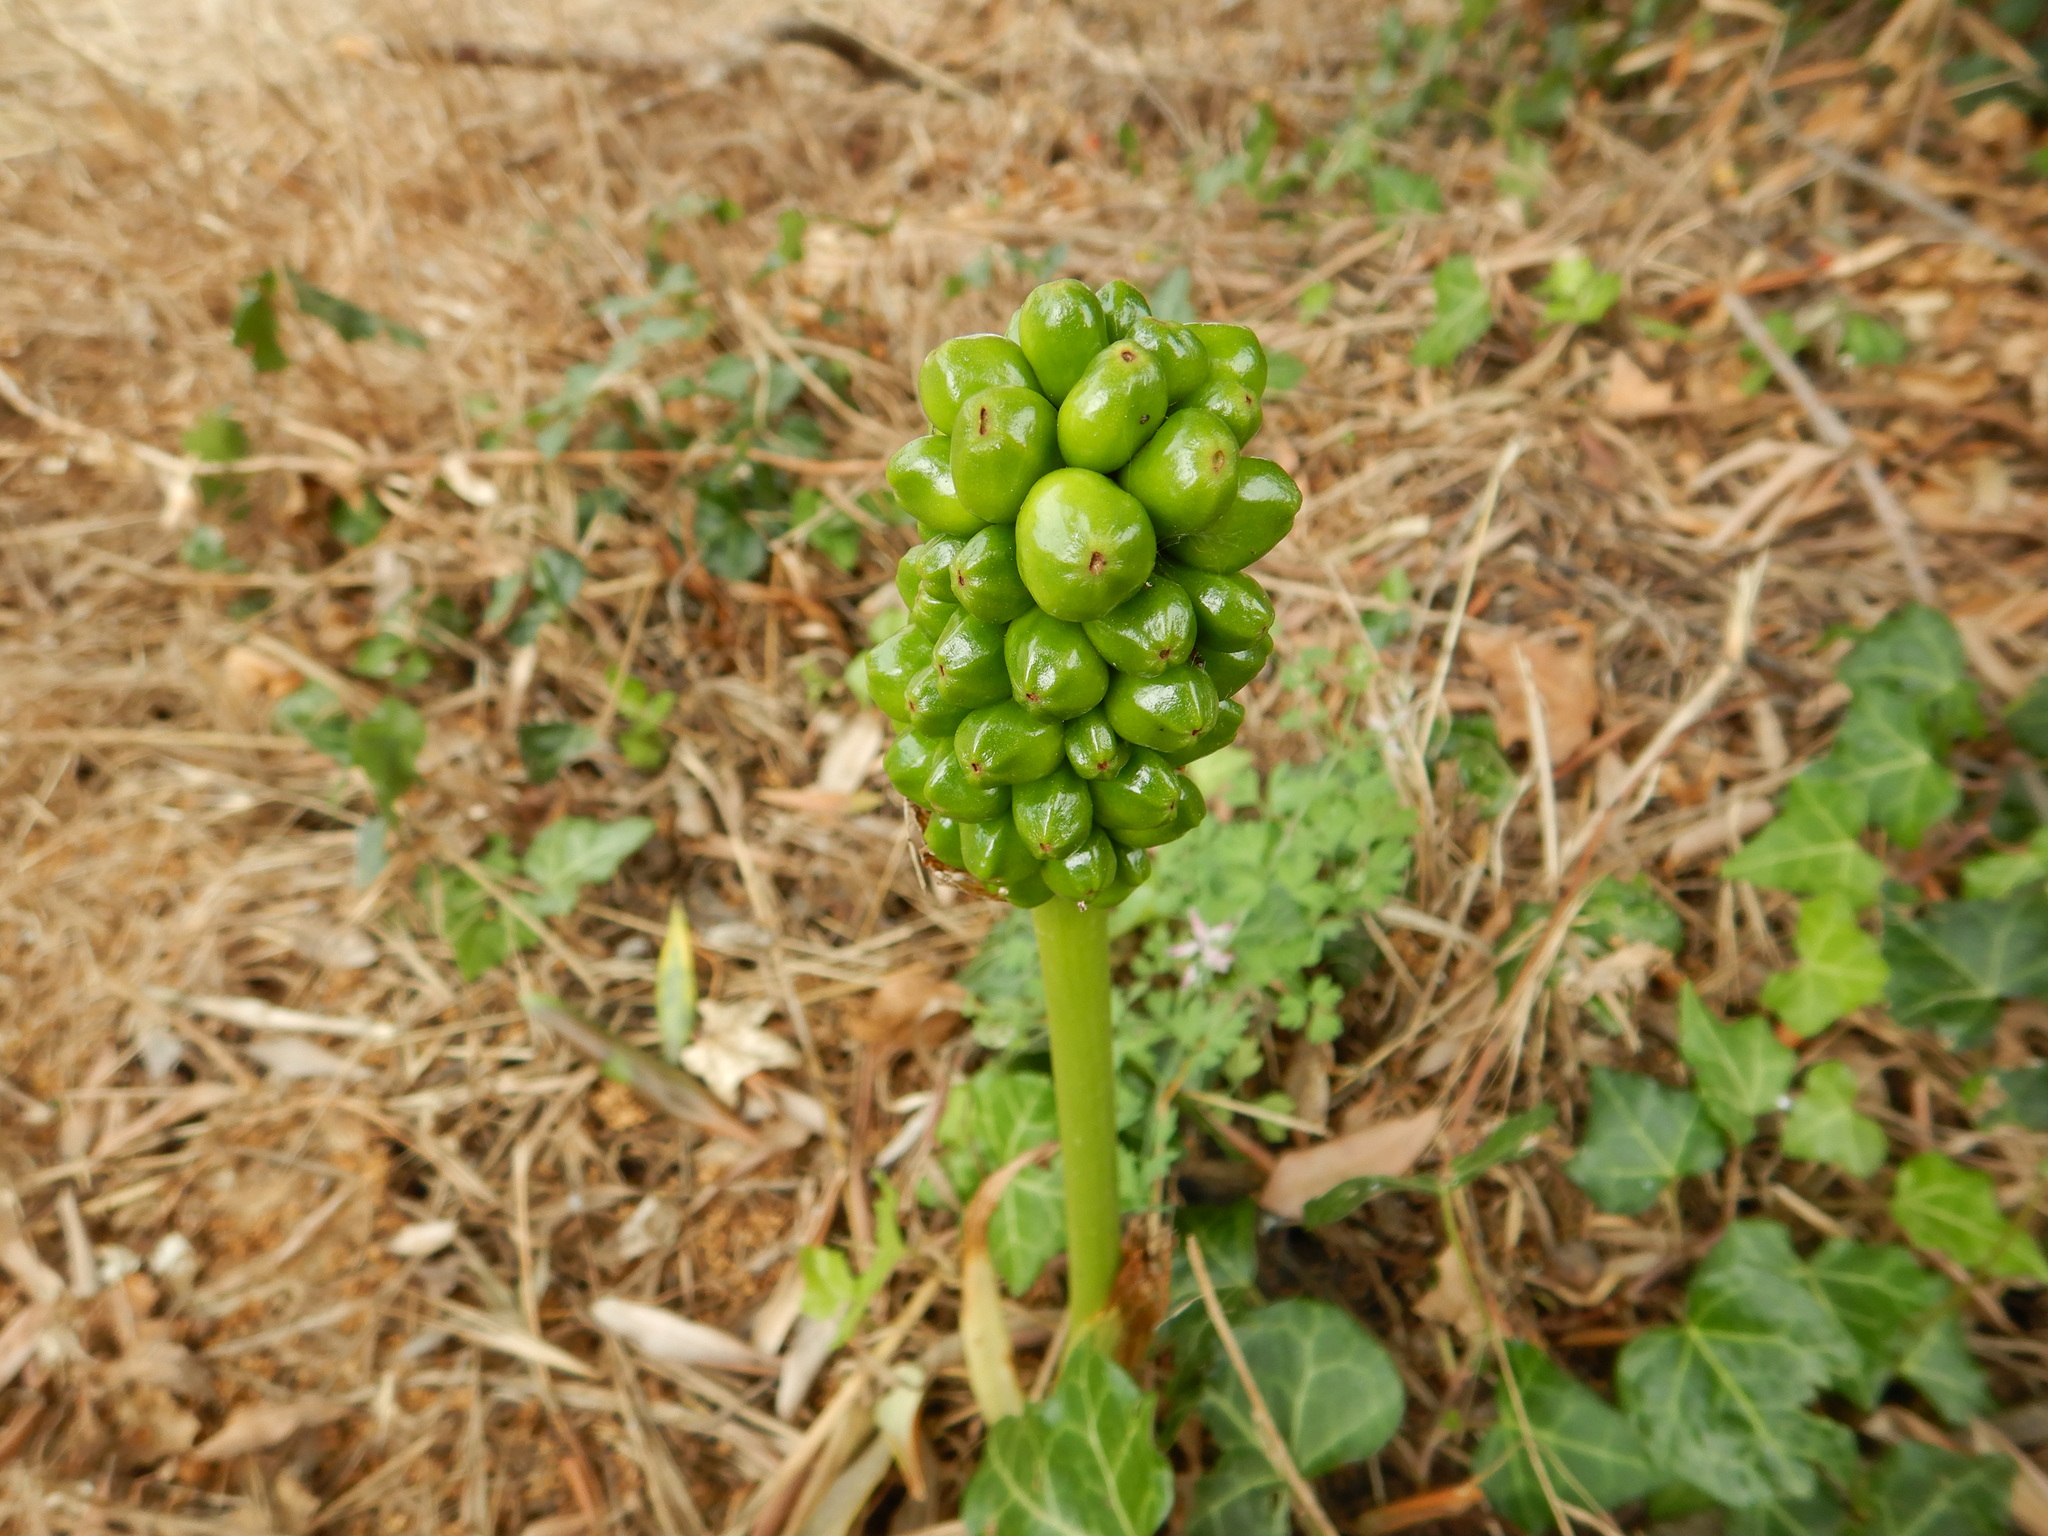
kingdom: Plantae
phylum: Tracheophyta
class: Liliopsida
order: Alismatales
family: Araceae
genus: Arum
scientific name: Arum italicum
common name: Italian lords-and-ladies
